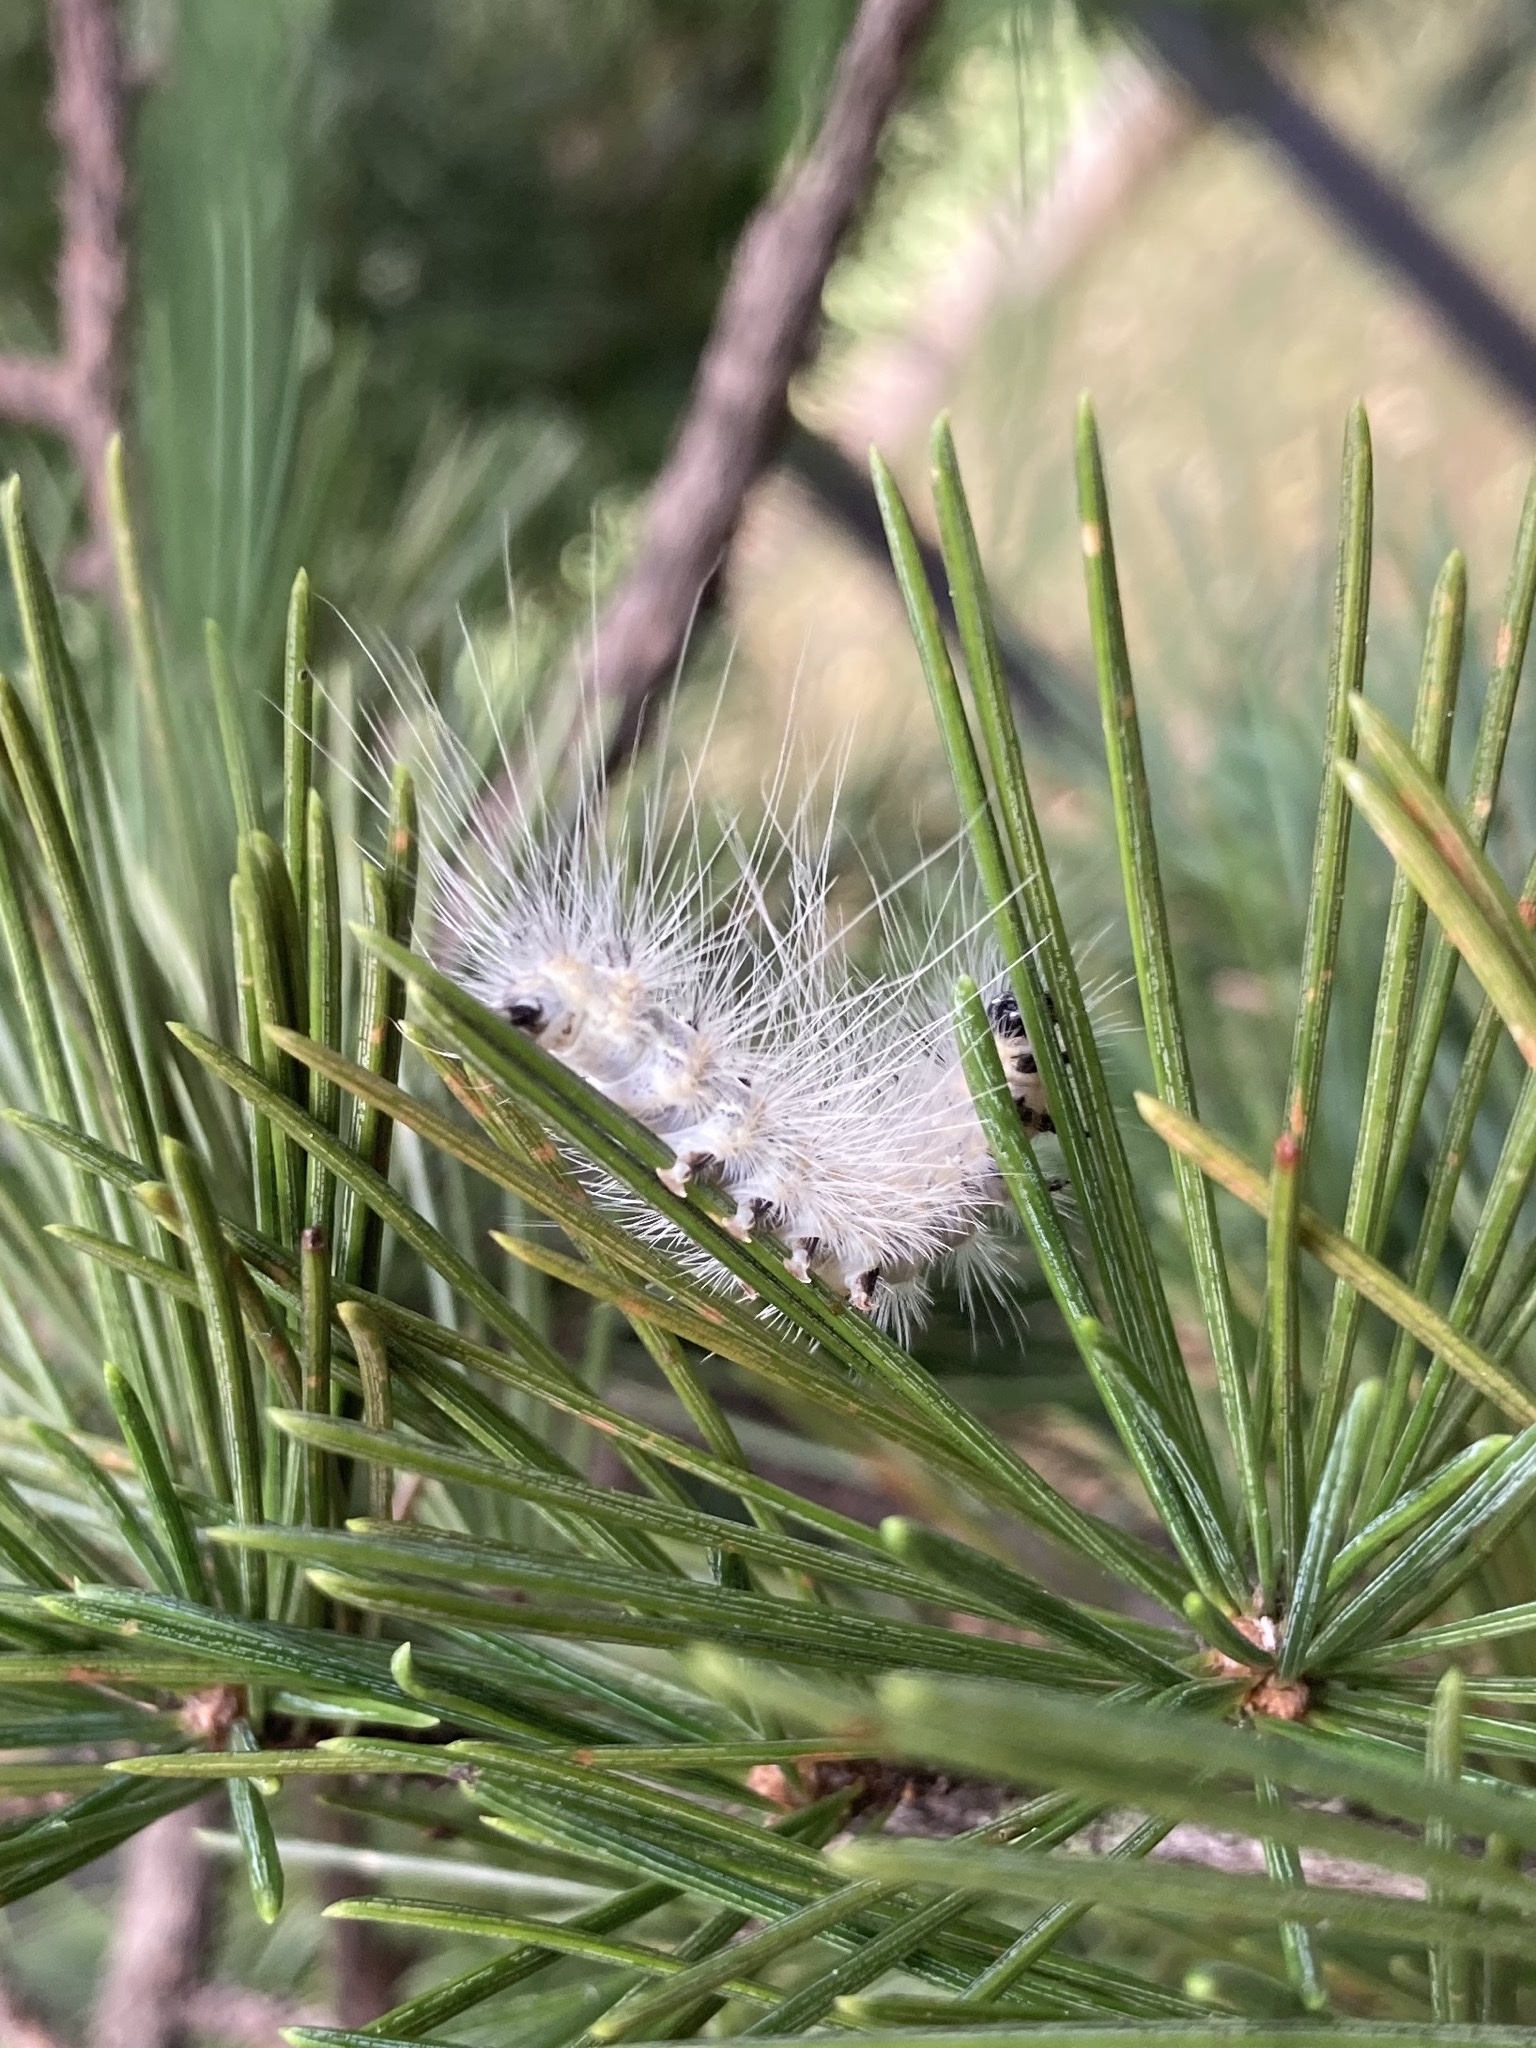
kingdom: Animalia
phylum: Arthropoda
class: Insecta
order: Lepidoptera
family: Erebidae
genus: Hyphantria
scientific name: Hyphantria cunea
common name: American white moth
